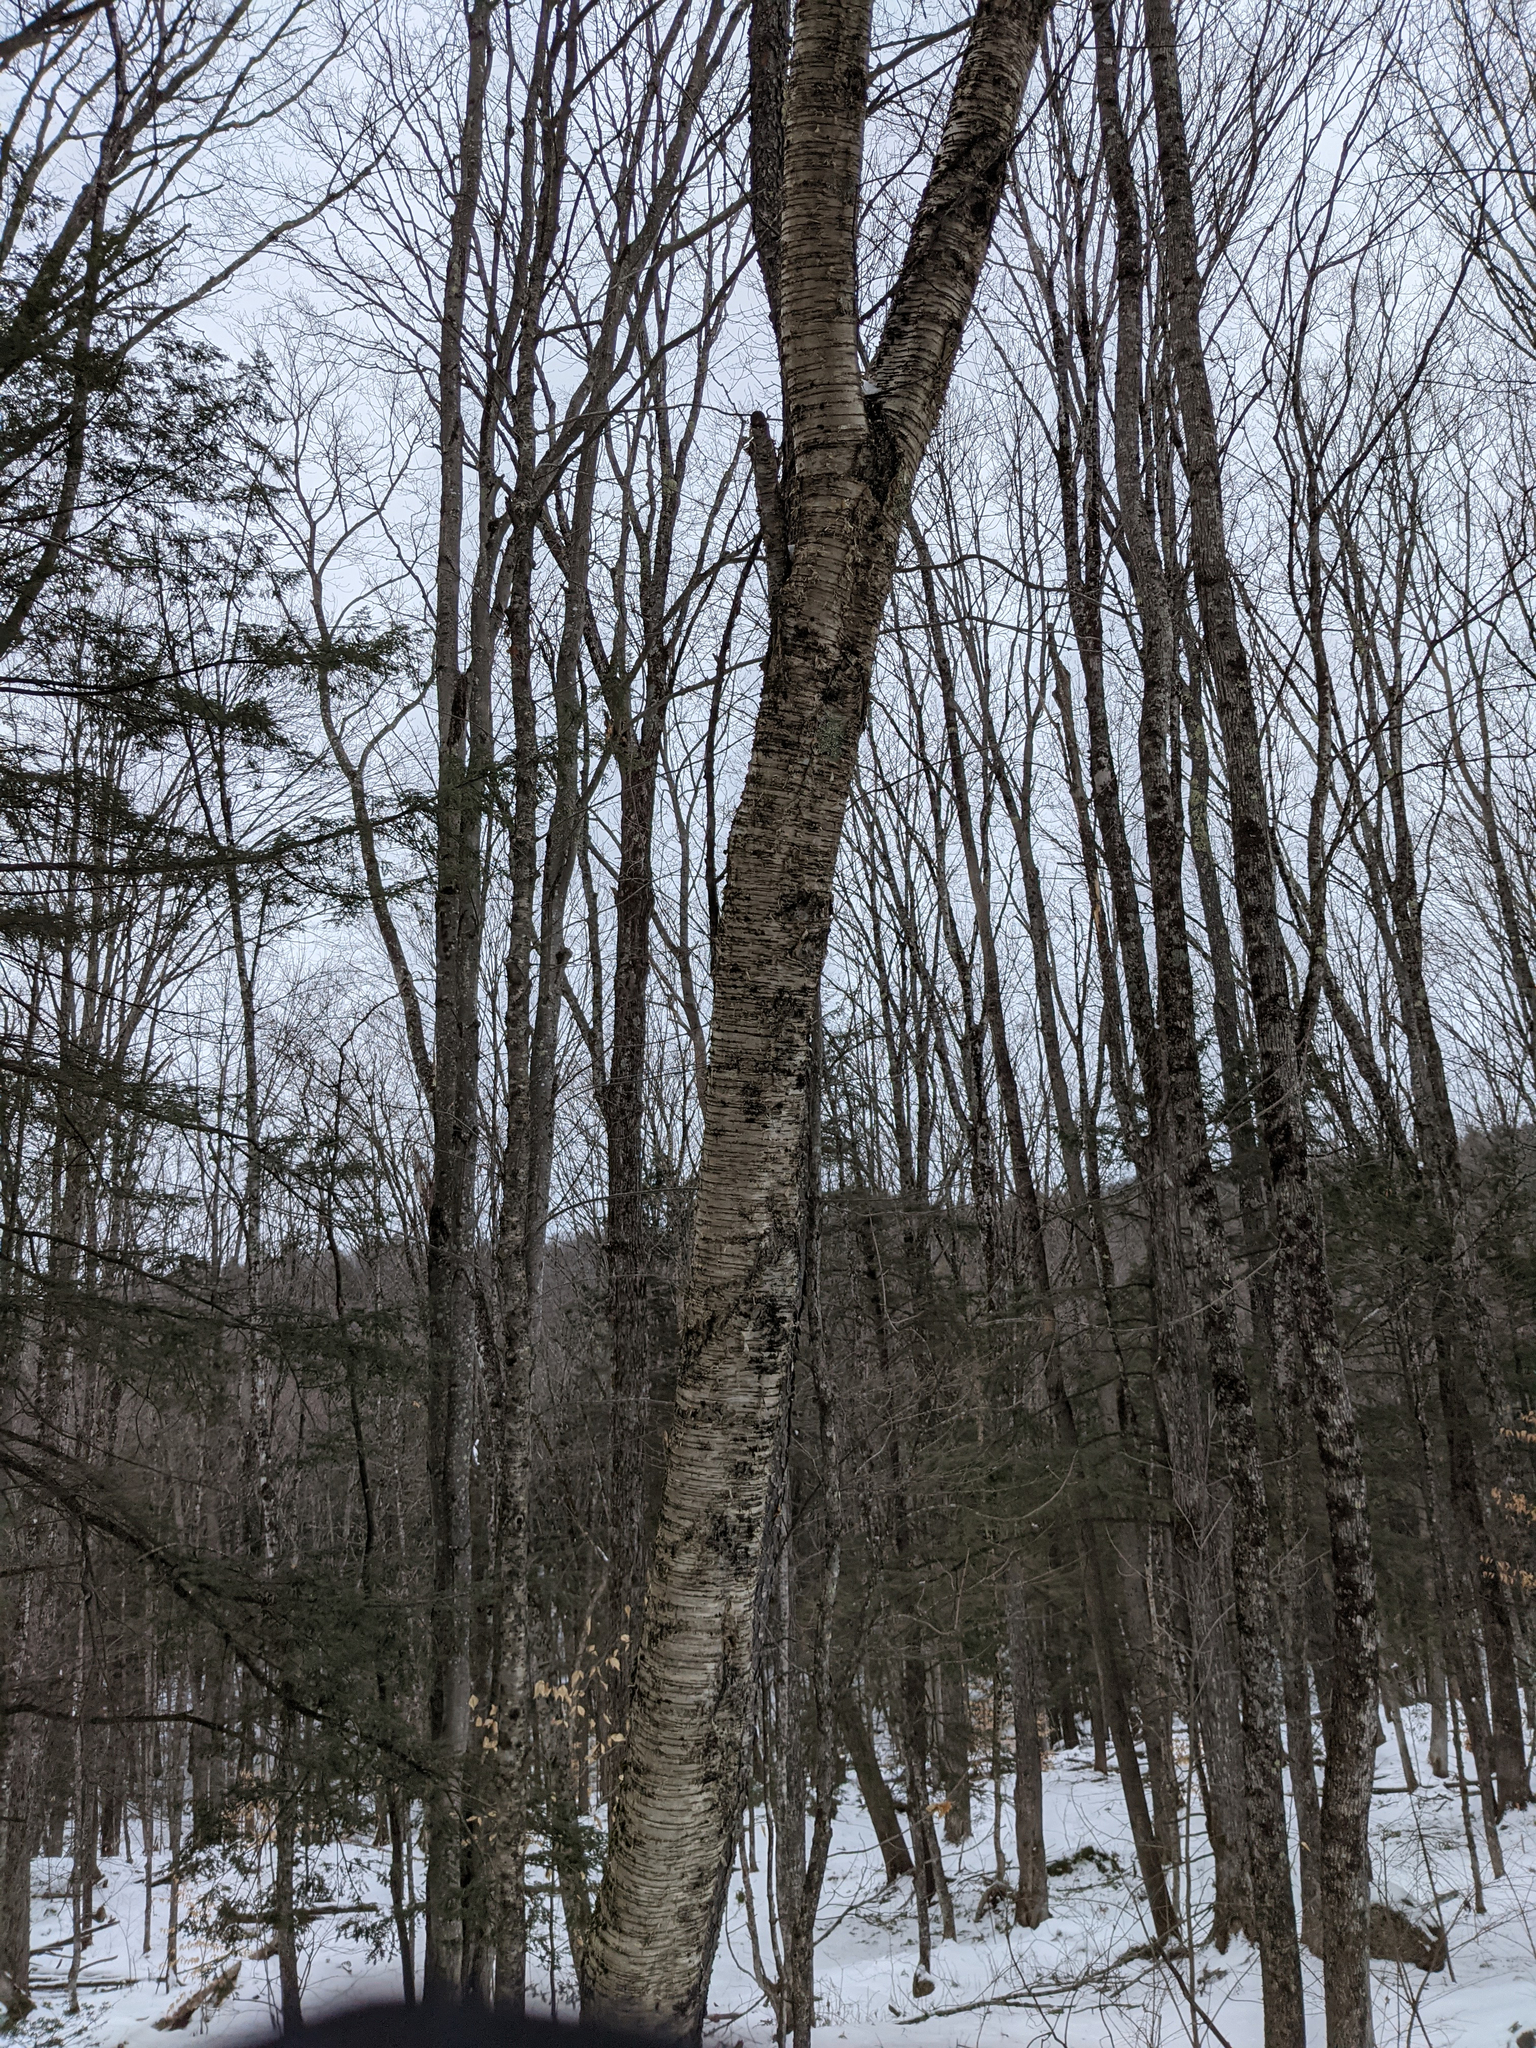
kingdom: Plantae
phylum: Tracheophyta
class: Magnoliopsida
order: Fagales
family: Betulaceae
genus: Betula
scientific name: Betula alleghaniensis
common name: Yellow birch
